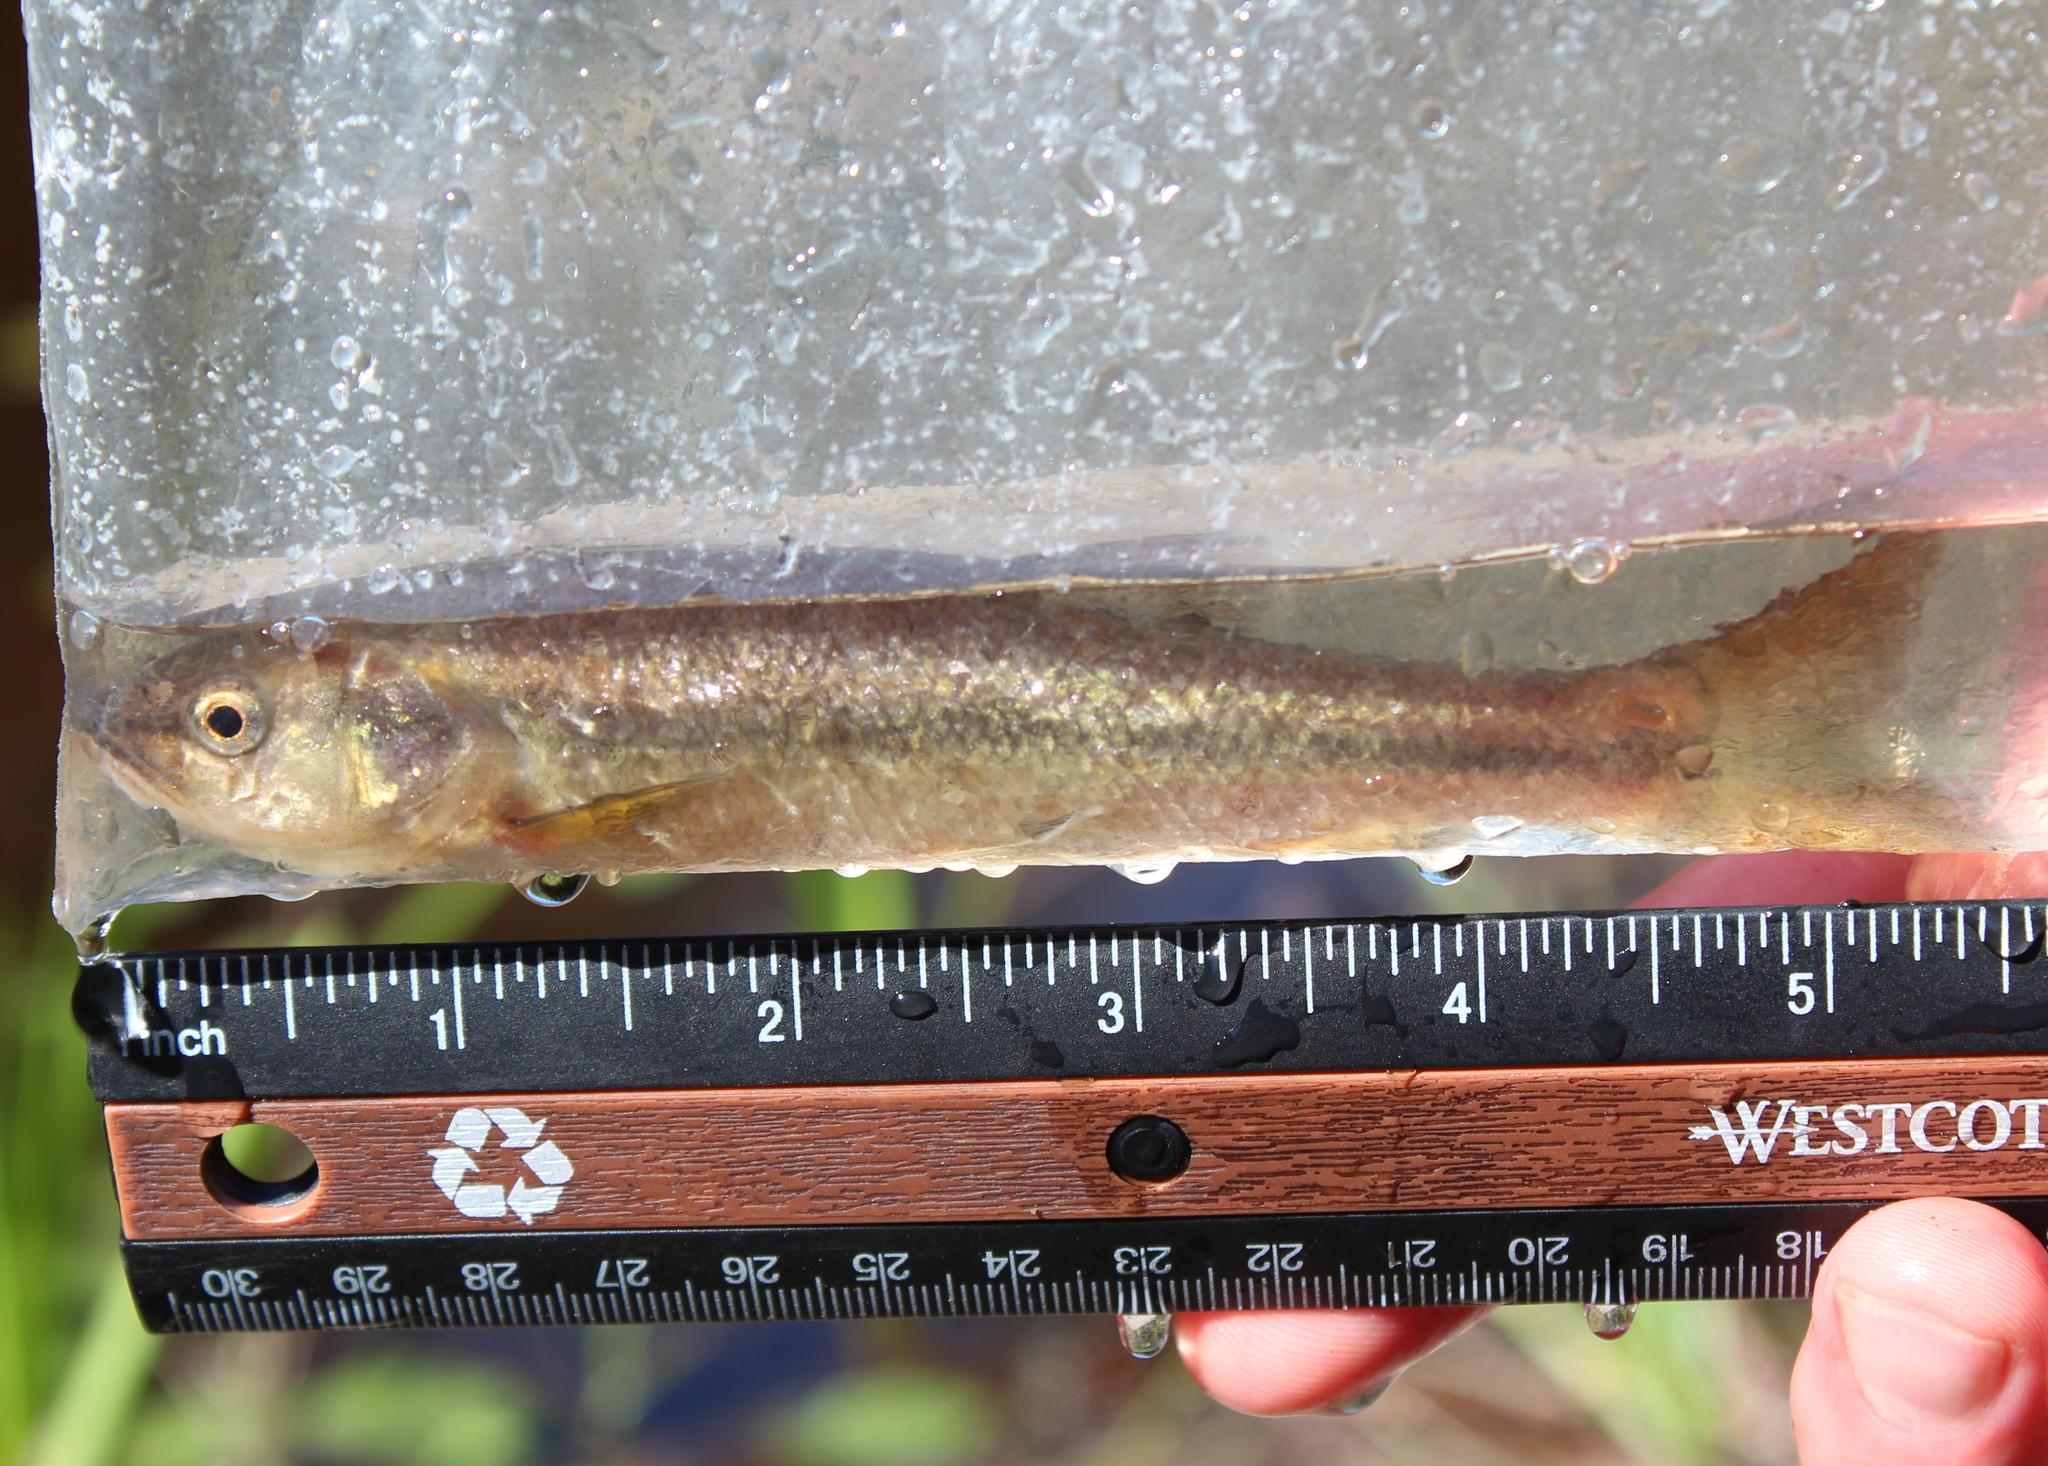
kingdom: Animalia
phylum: Chordata
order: Cypriniformes
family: Cyprinidae
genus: Semotilus
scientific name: Semotilus atromaculatus
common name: Creek chub
